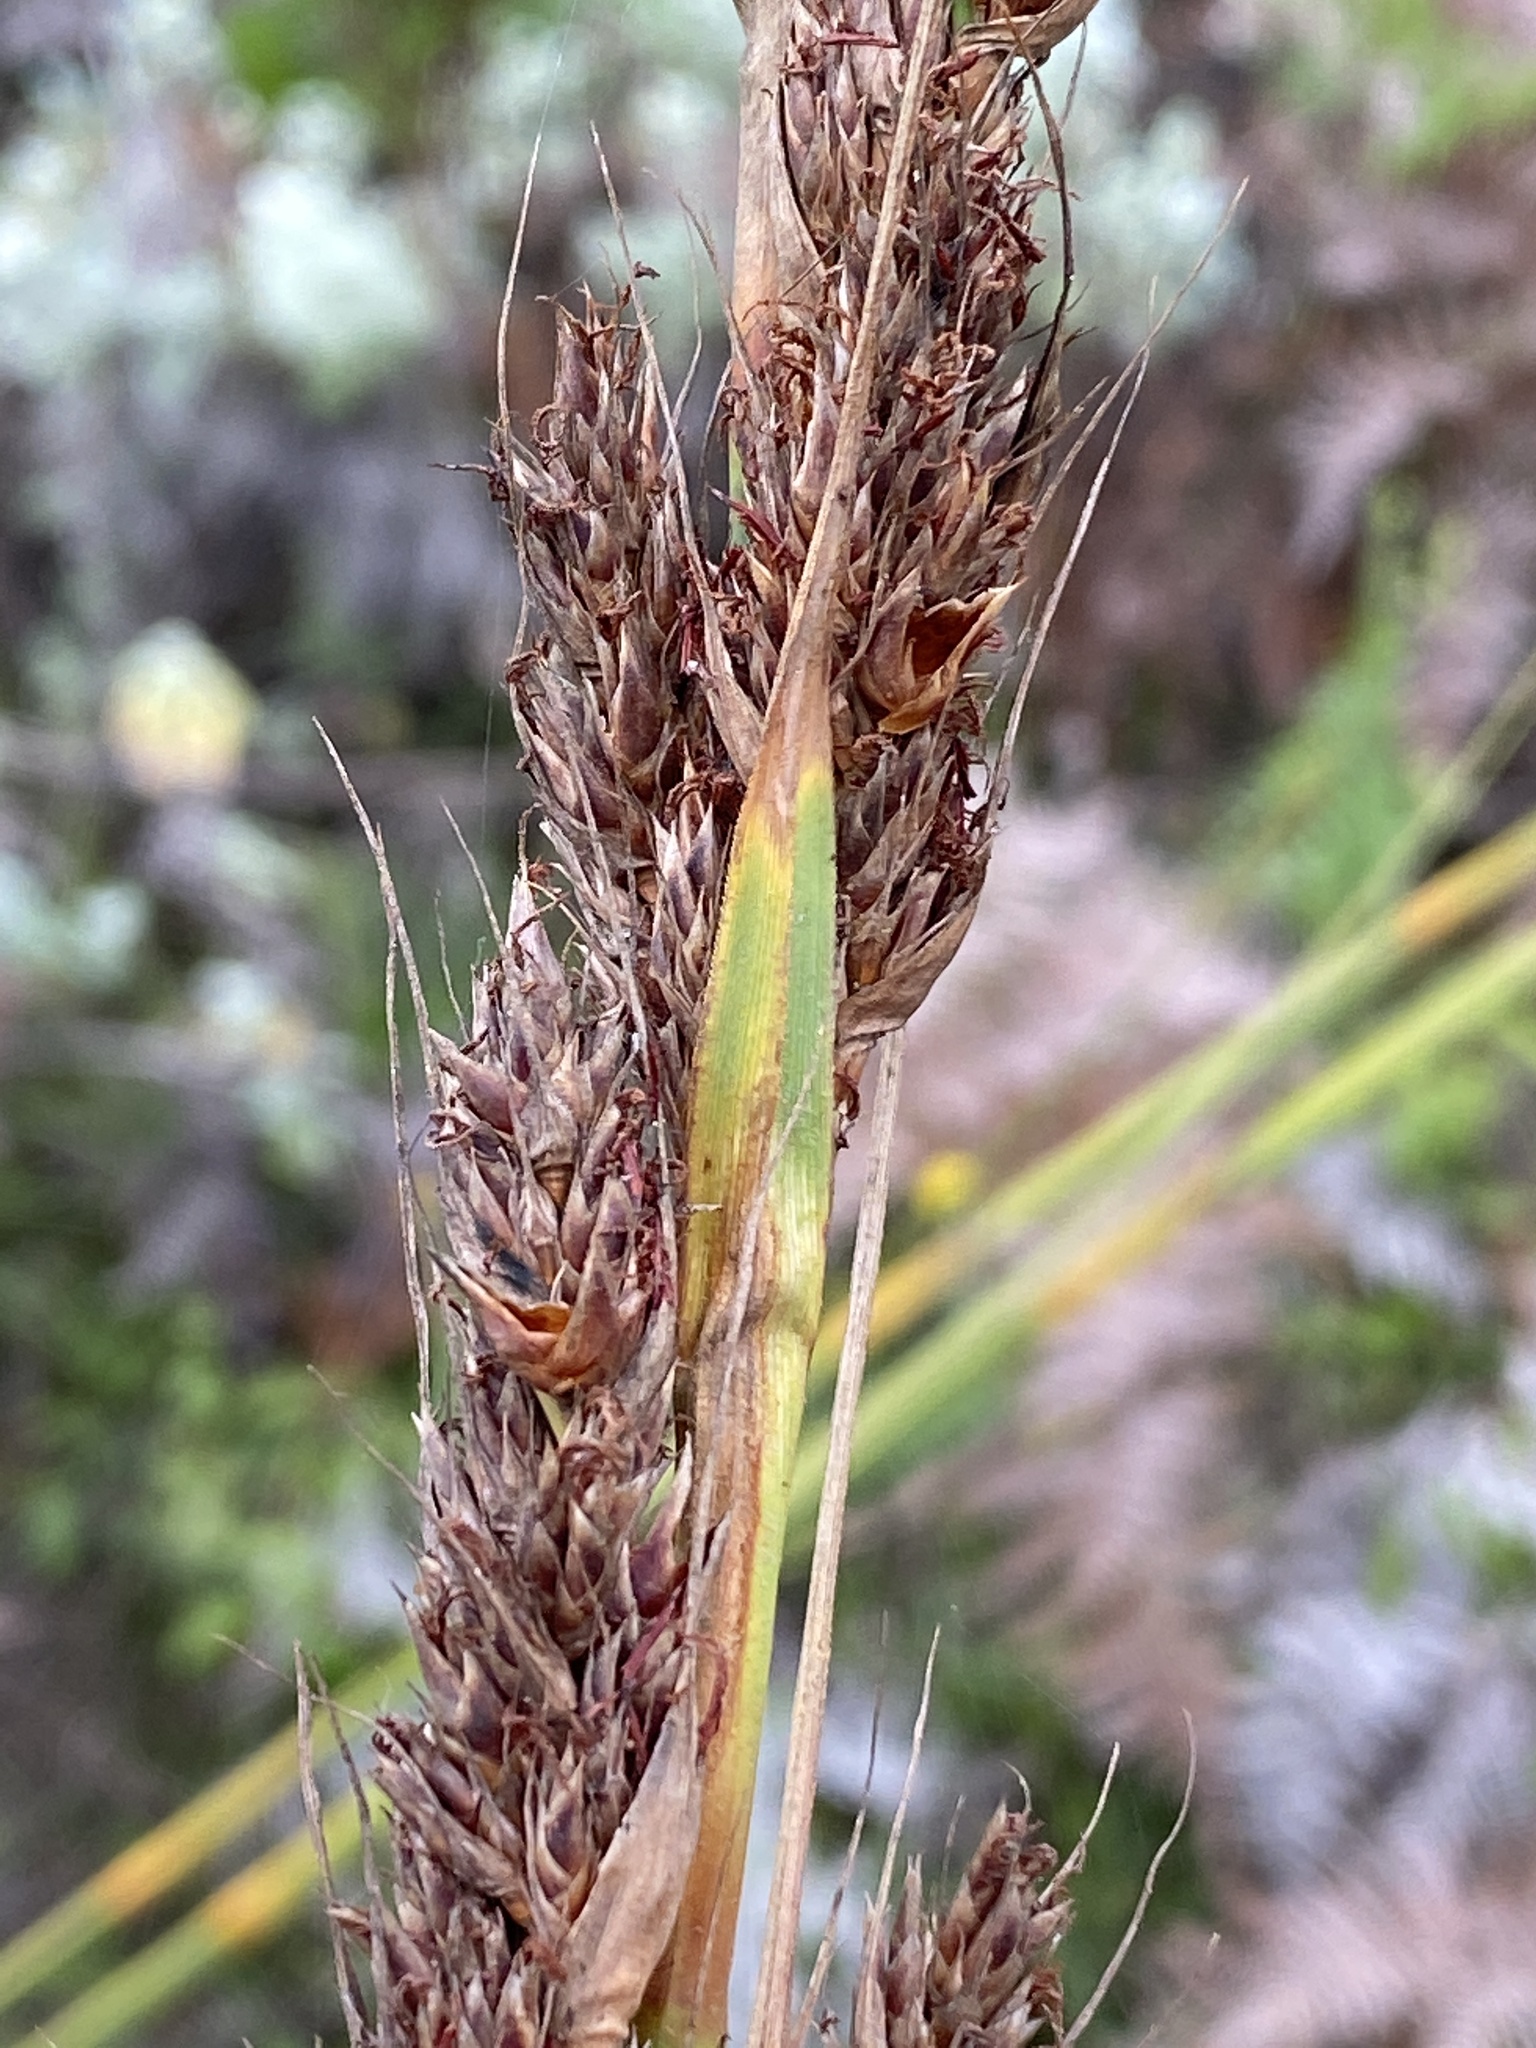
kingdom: Plantae
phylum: Tracheophyta
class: Liliopsida
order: Poales
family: Cyperaceae
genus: Tetraria
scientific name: Tetraria involucrata
